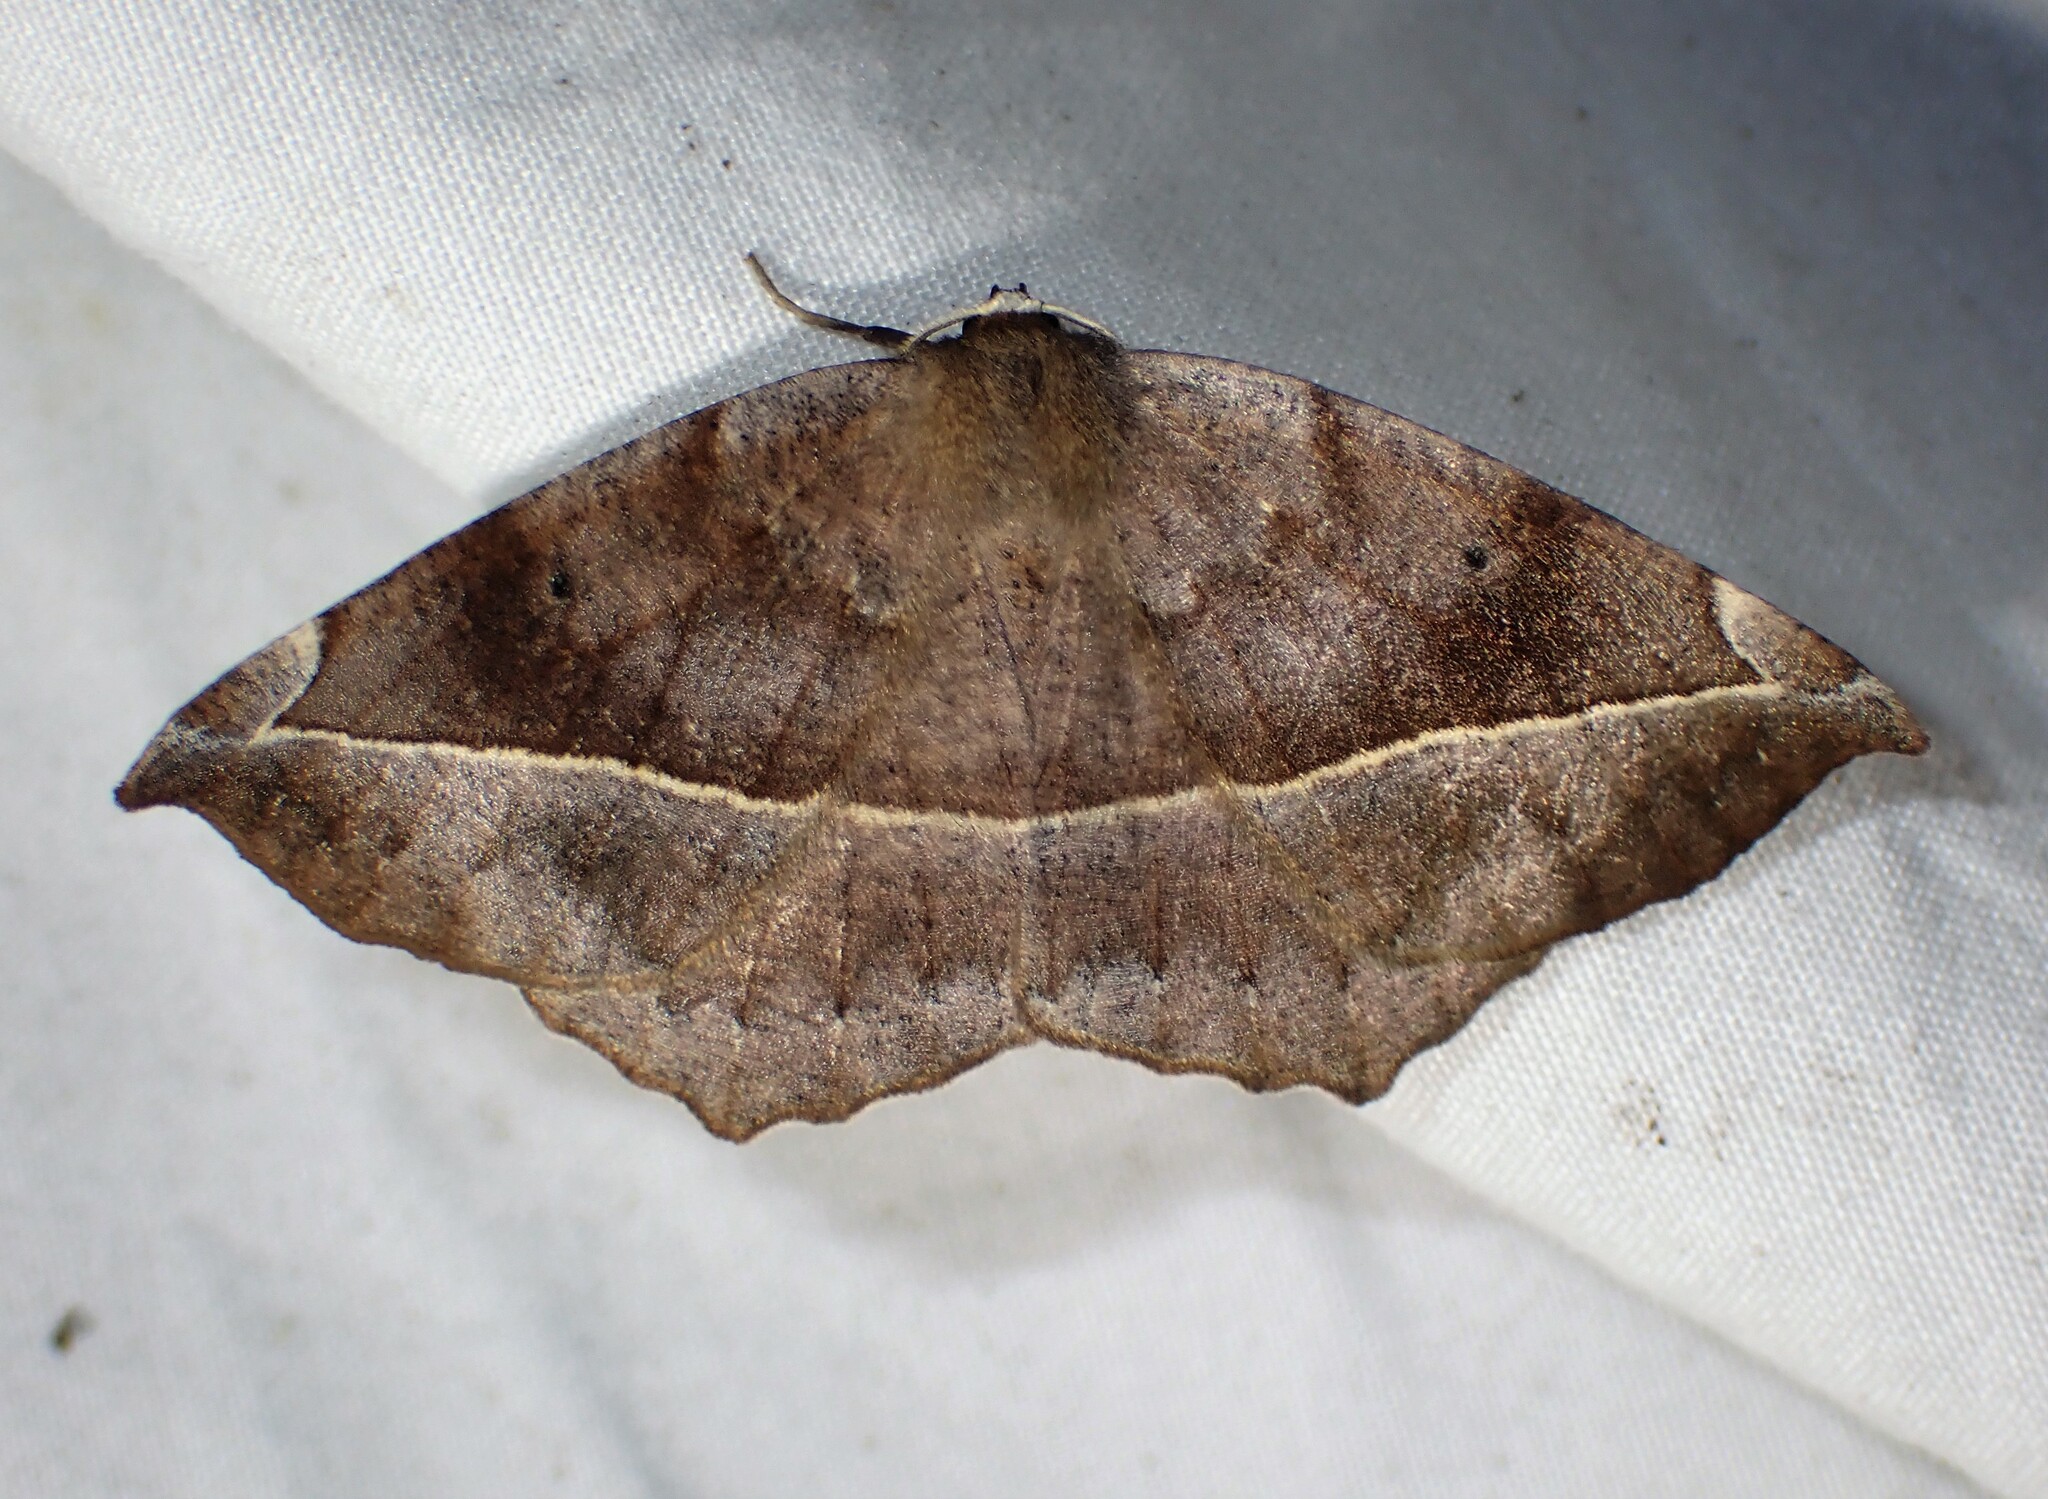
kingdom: Animalia
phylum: Arthropoda
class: Insecta
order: Lepidoptera
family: Geometridae
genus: Eutrapela
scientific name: Eutrapela clemataria
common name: Curved-toothed geometer
